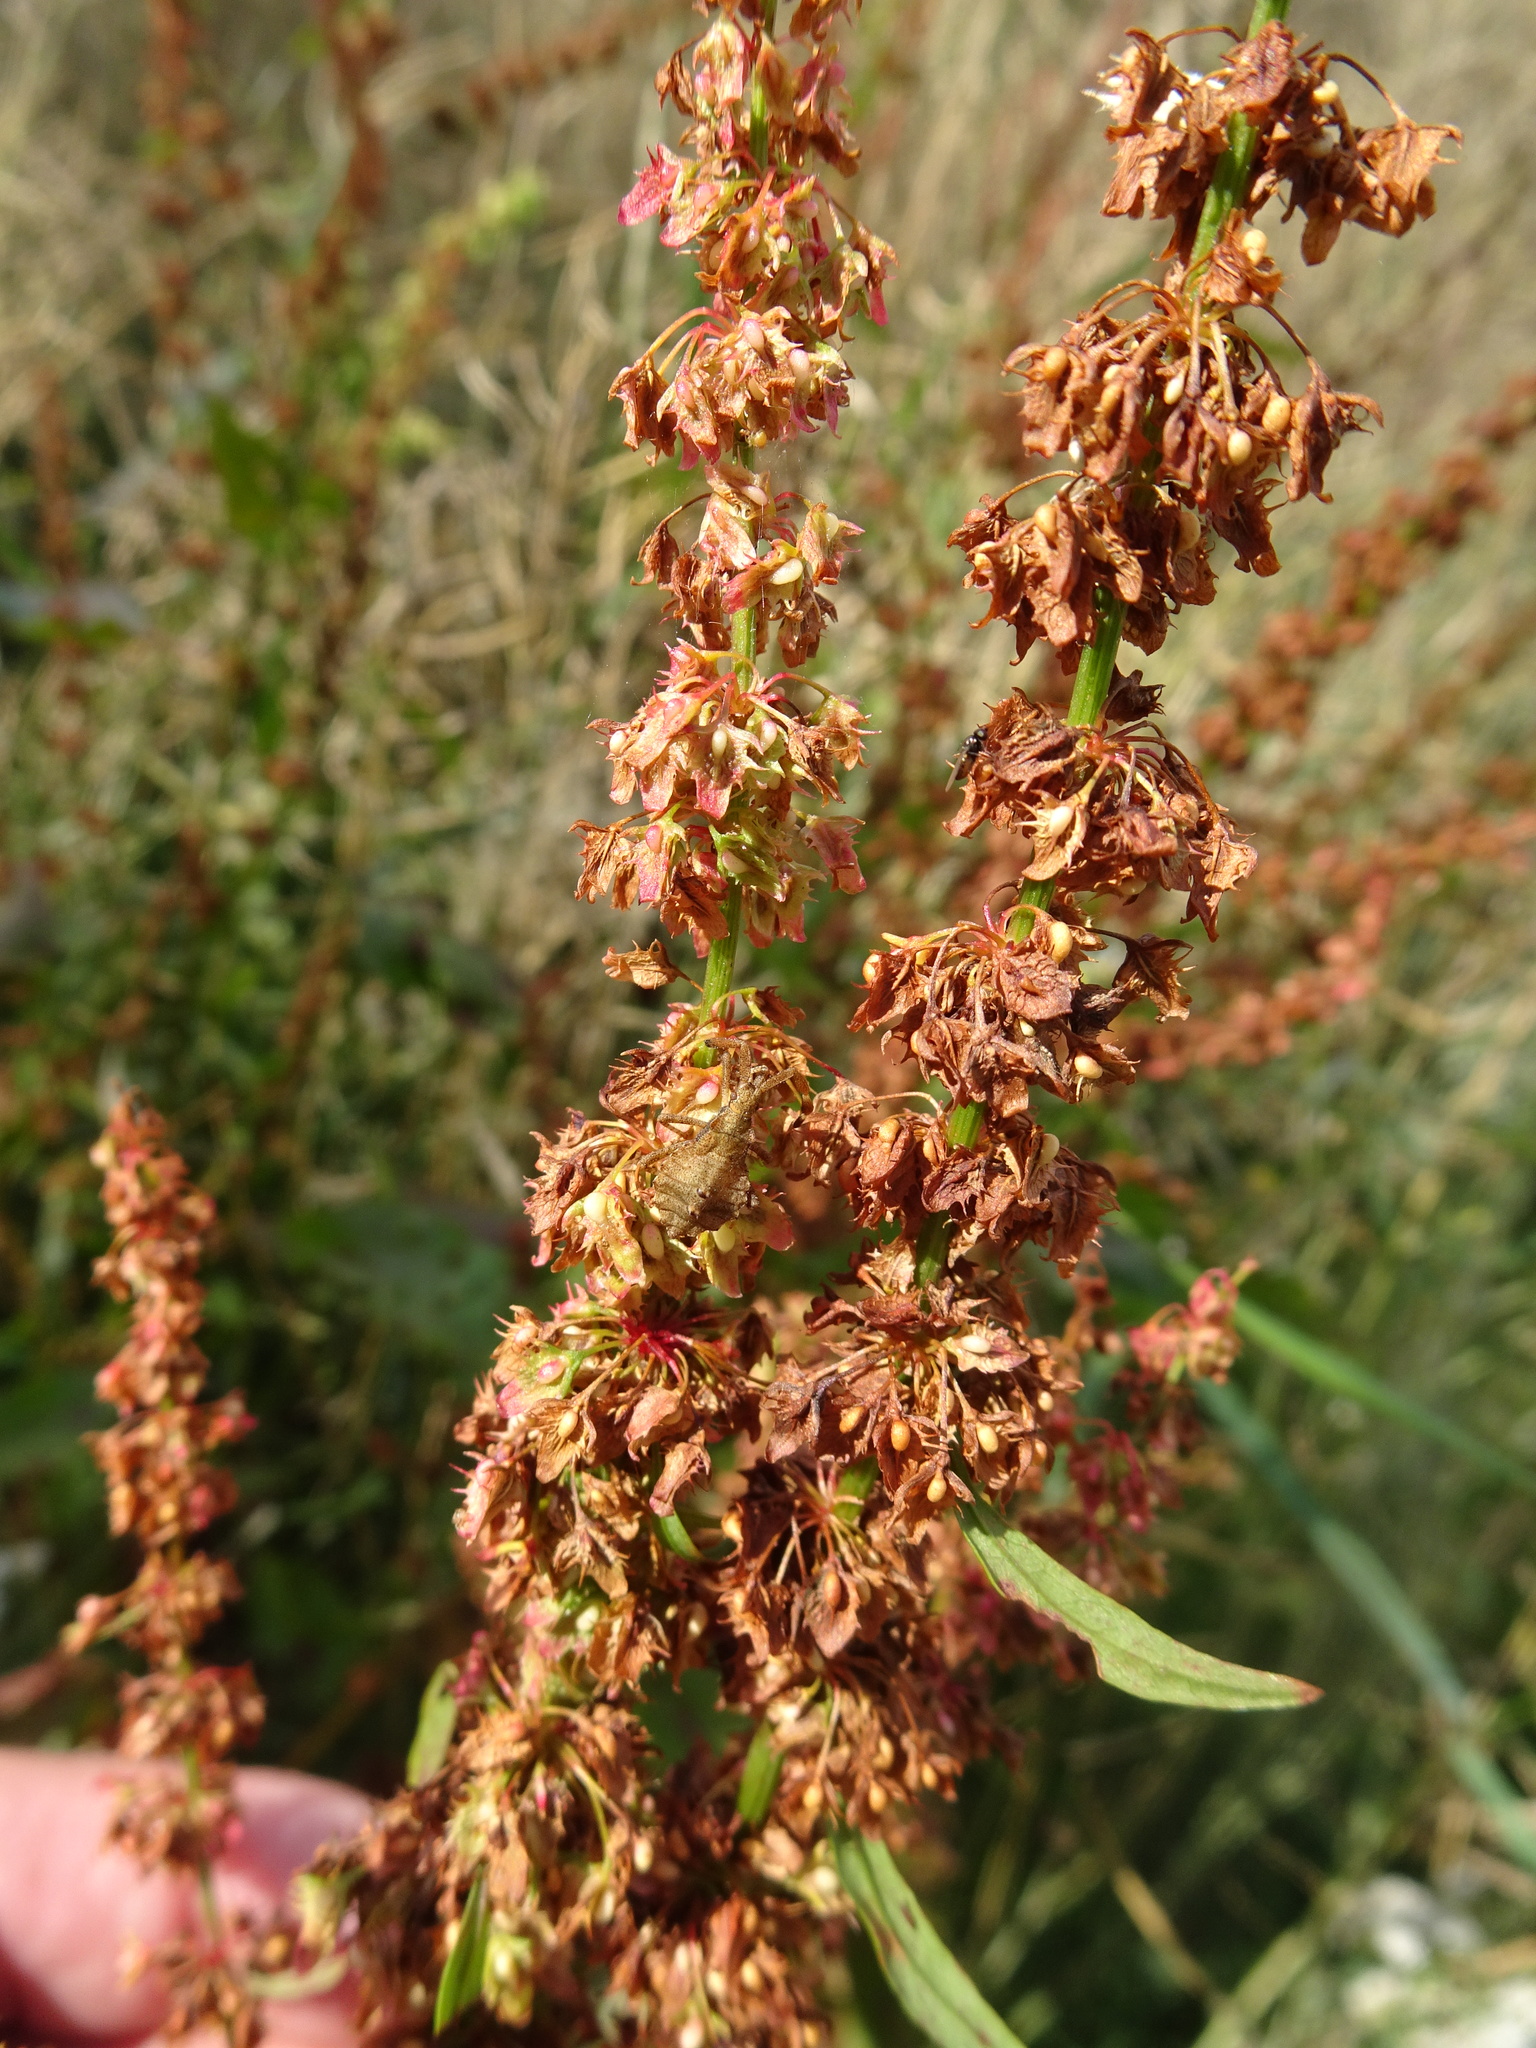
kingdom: Plantae
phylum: Tracheophyta
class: Magnoliopsida
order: Caryophyllales
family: Polygonaceae
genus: Rumex
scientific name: Rumex obtusifolius
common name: Bitter dock
